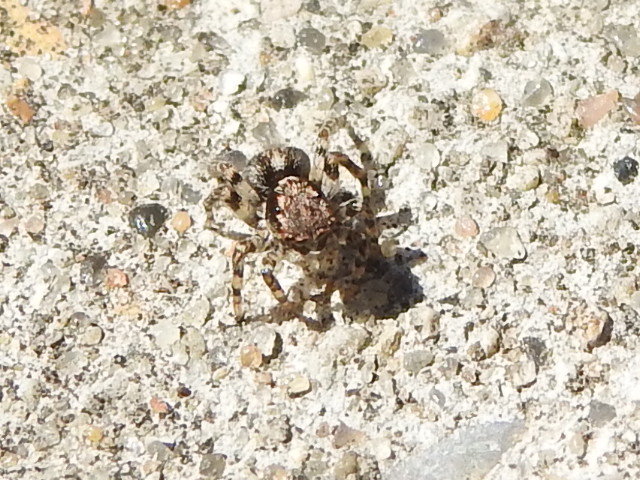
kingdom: Animalia
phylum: Arthropoda
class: Arachnida
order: Araneae
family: Salticidae
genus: Naphrys
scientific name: Naphrys pulex
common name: Flea jumping spider
